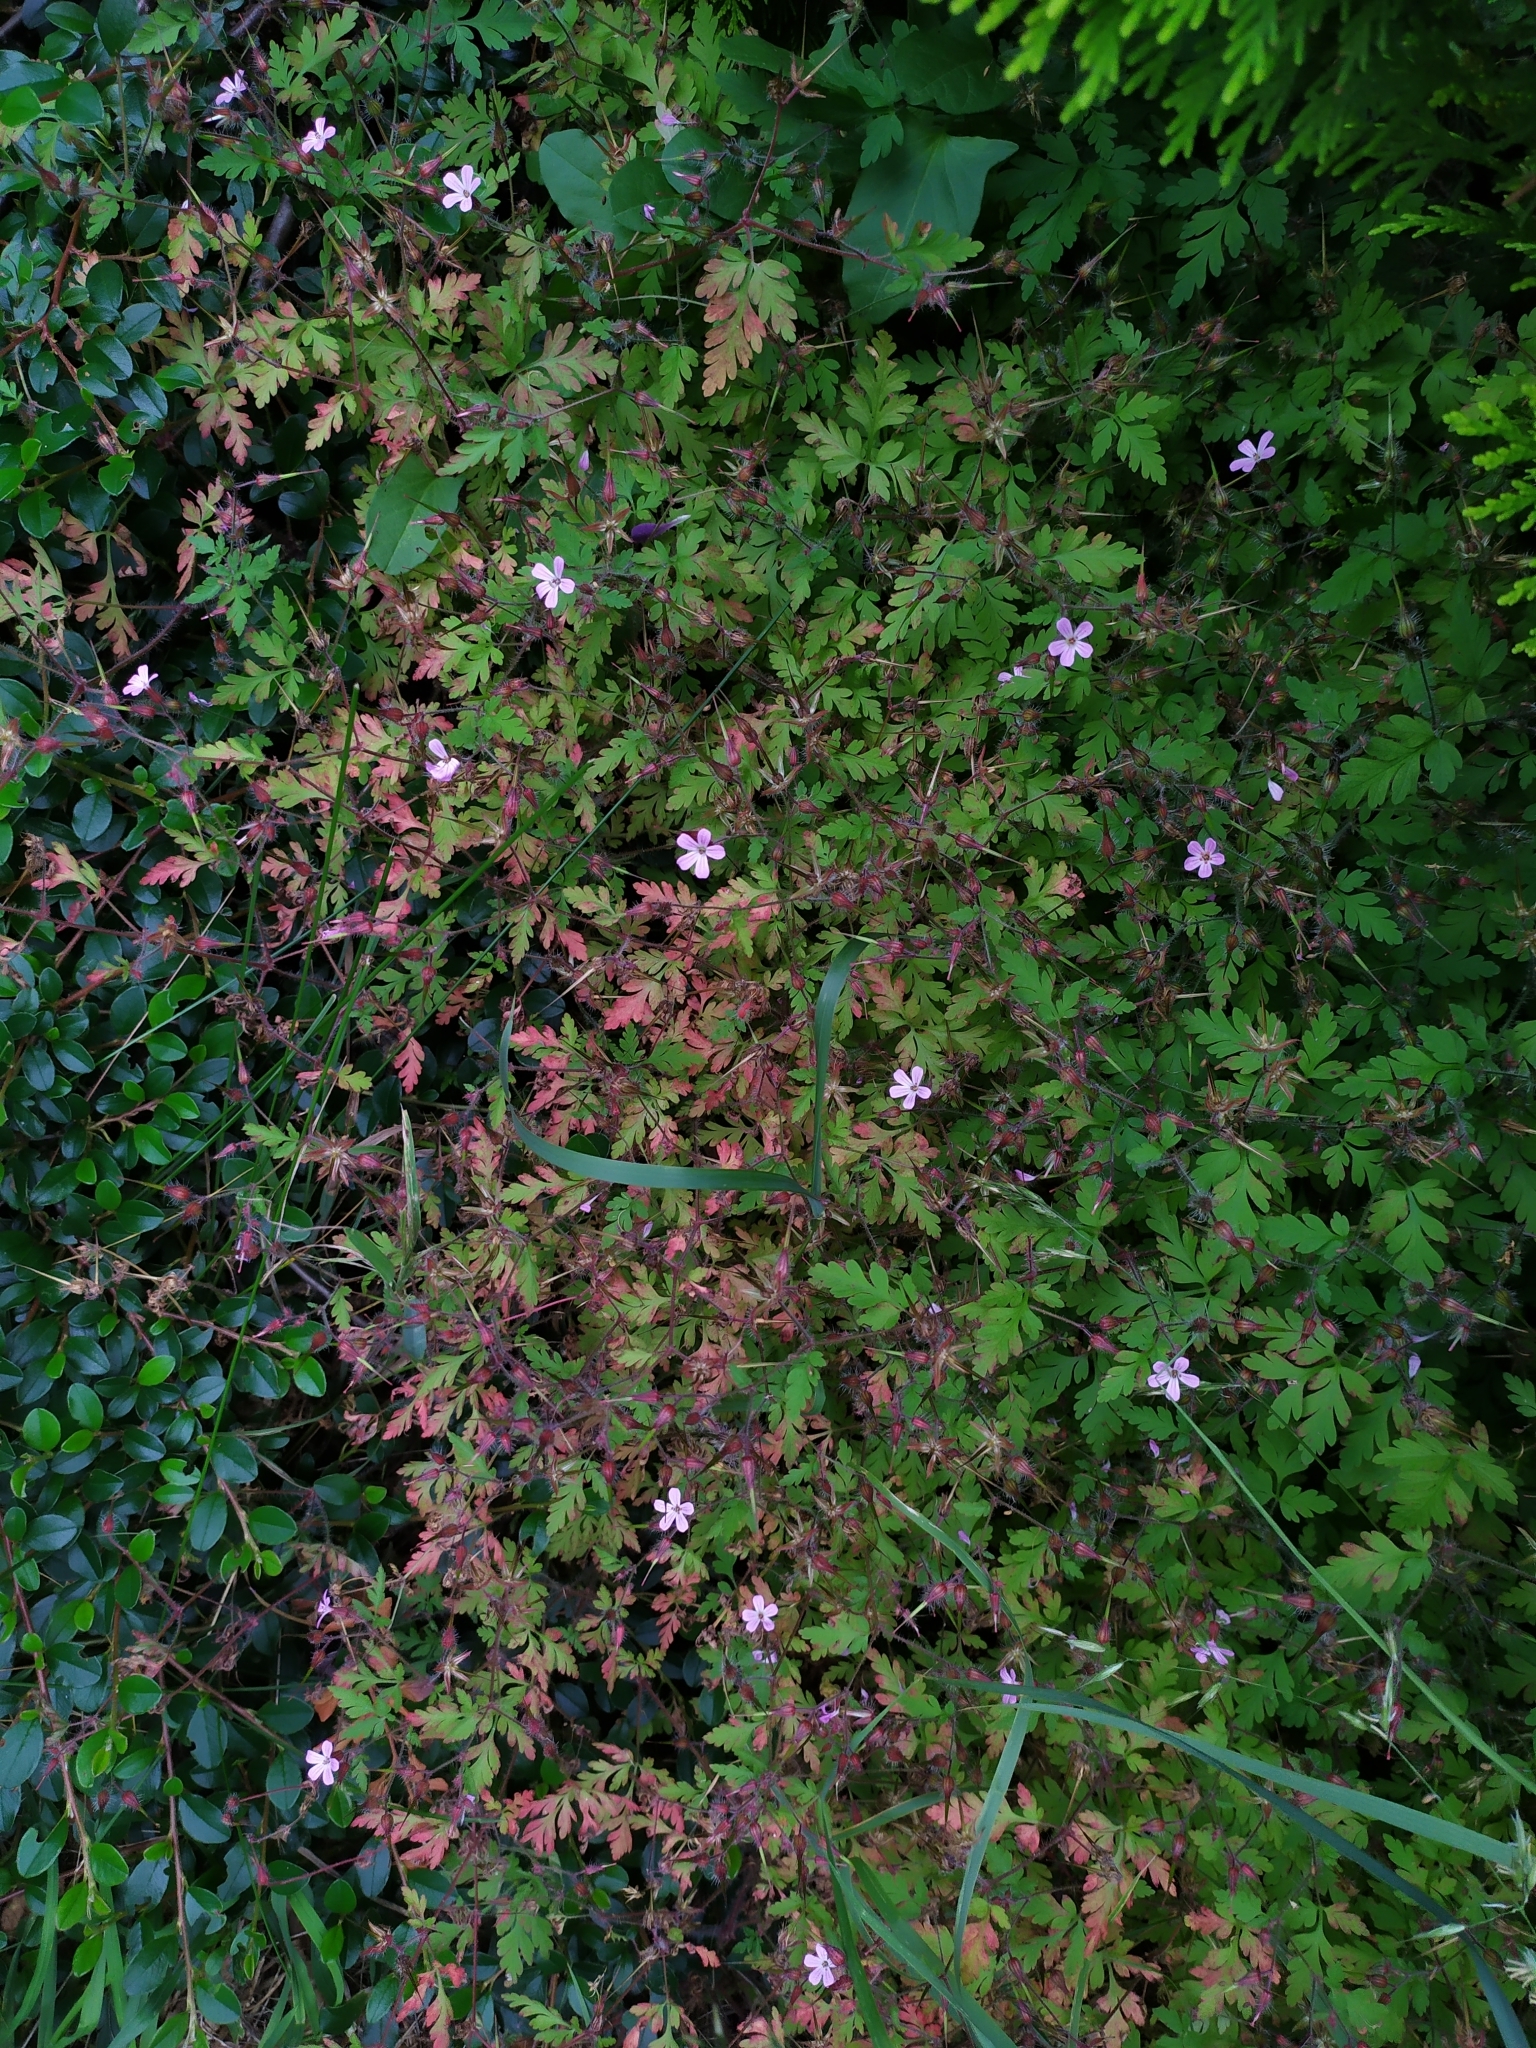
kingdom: Plantae
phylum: Tracheophyta
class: Magnoliopsida
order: Geraniales
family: Geraniaceae
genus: Geranium
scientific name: Geranium robertianum
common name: Herb-robert
